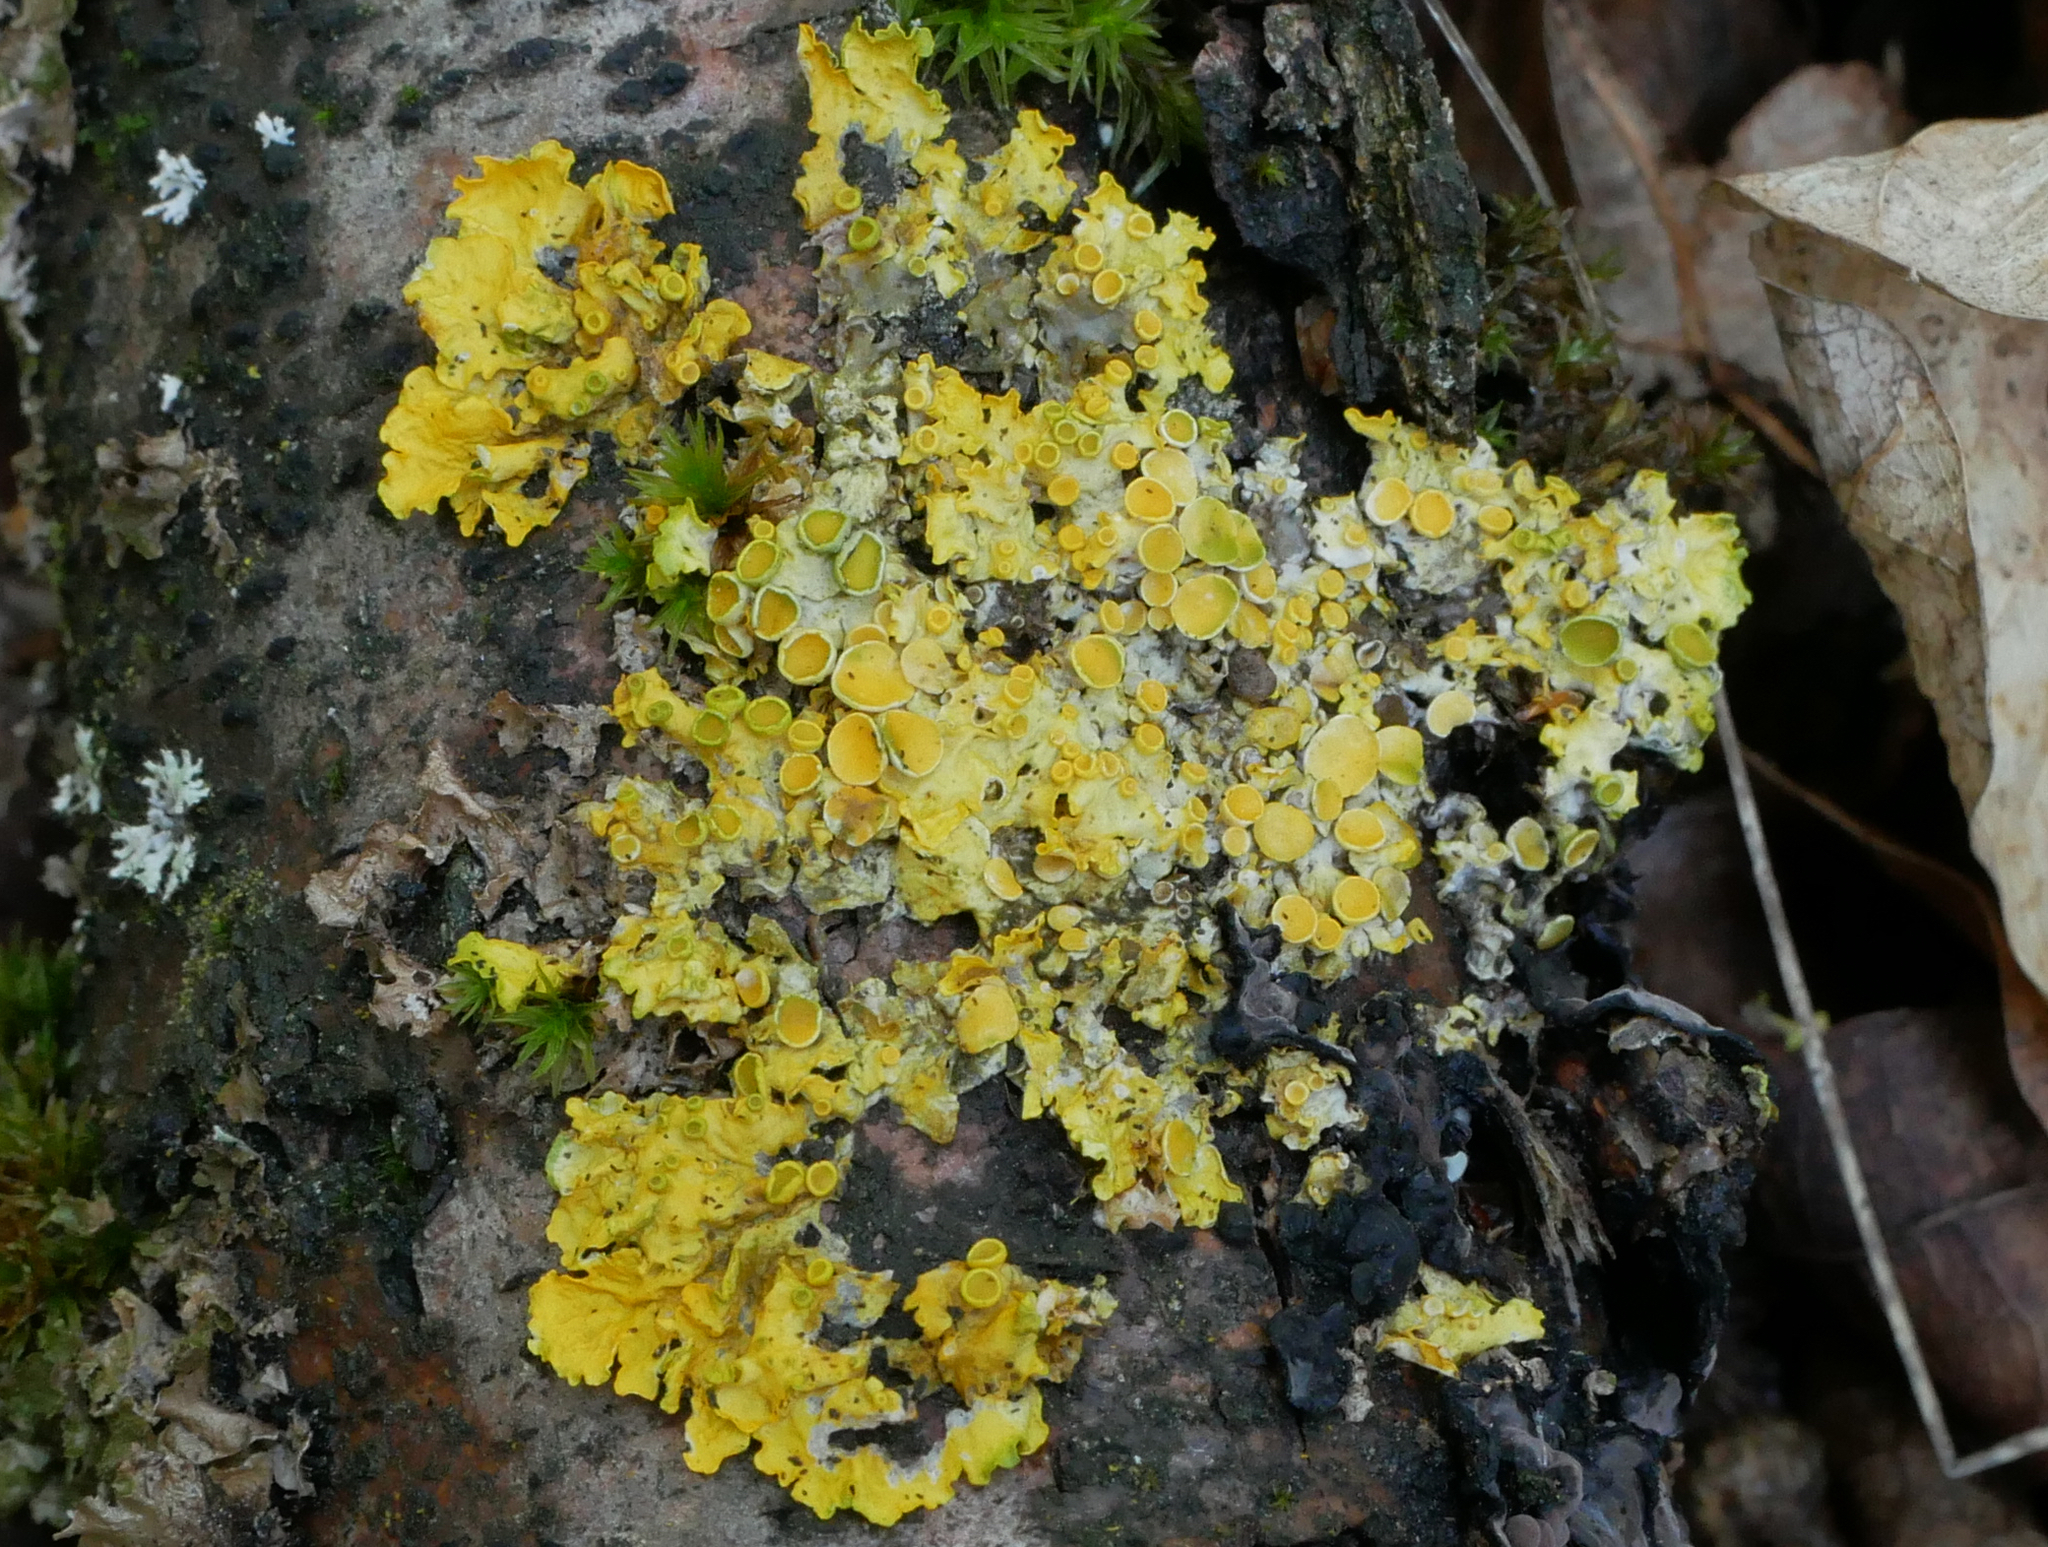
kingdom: Fungi
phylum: Ascomycota
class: Lecanoromycetes
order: Teloschistales
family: Teloschistaceae
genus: Xanthoria
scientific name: Xanthoria parietina
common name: Common orange lichen
